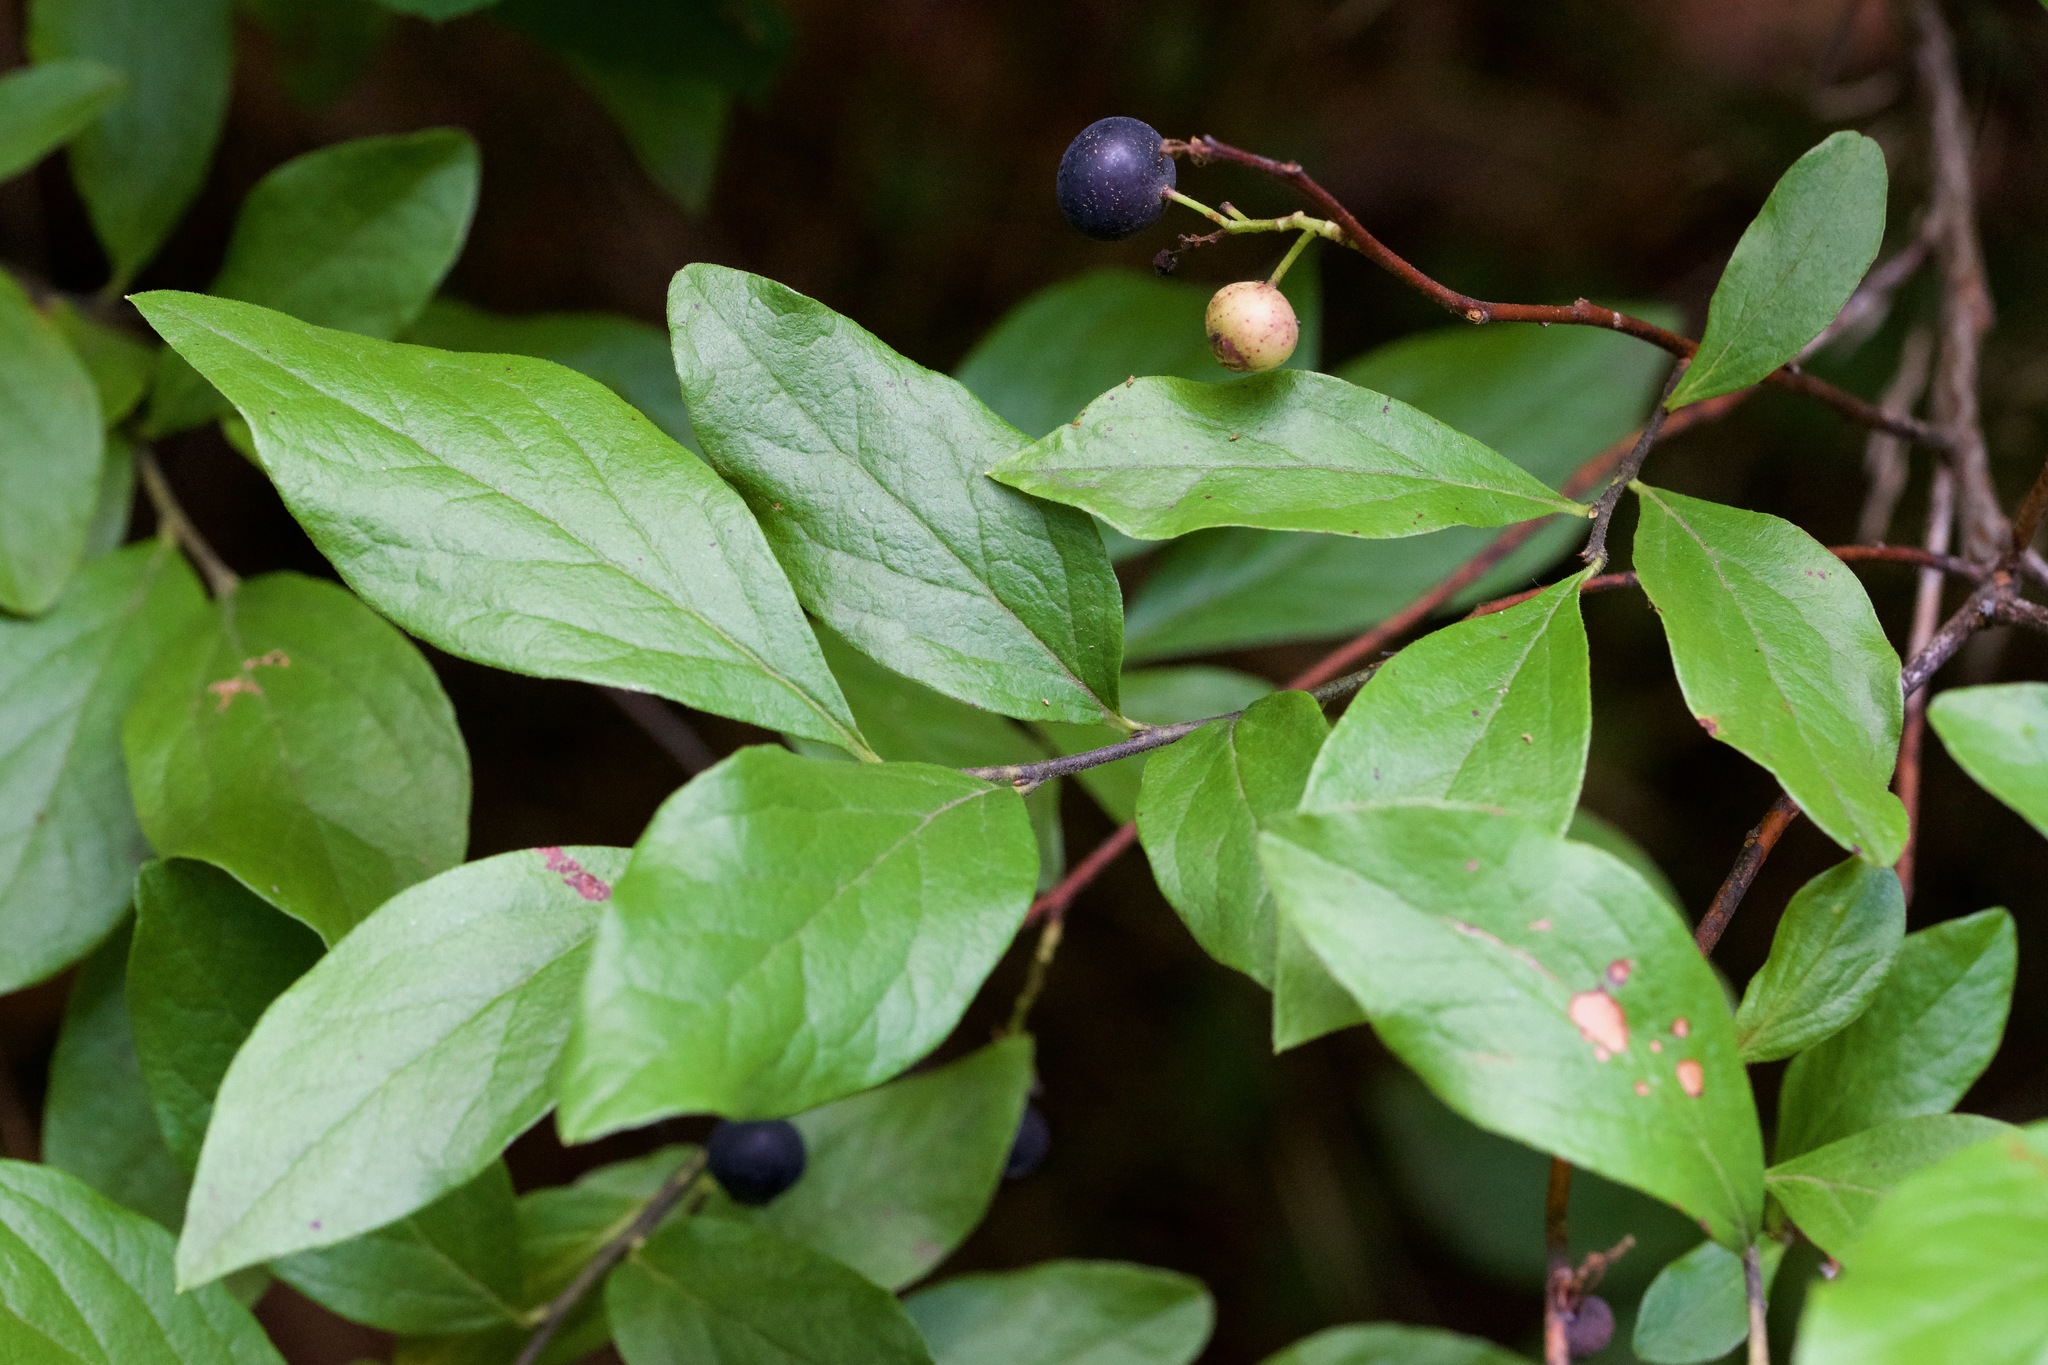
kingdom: Plantae
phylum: Tracheophyta
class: Magnoliopsida
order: Ericales
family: Ericaceae
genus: Gaylussacia
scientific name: Gaylussacia baccata
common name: Black huckleberry
